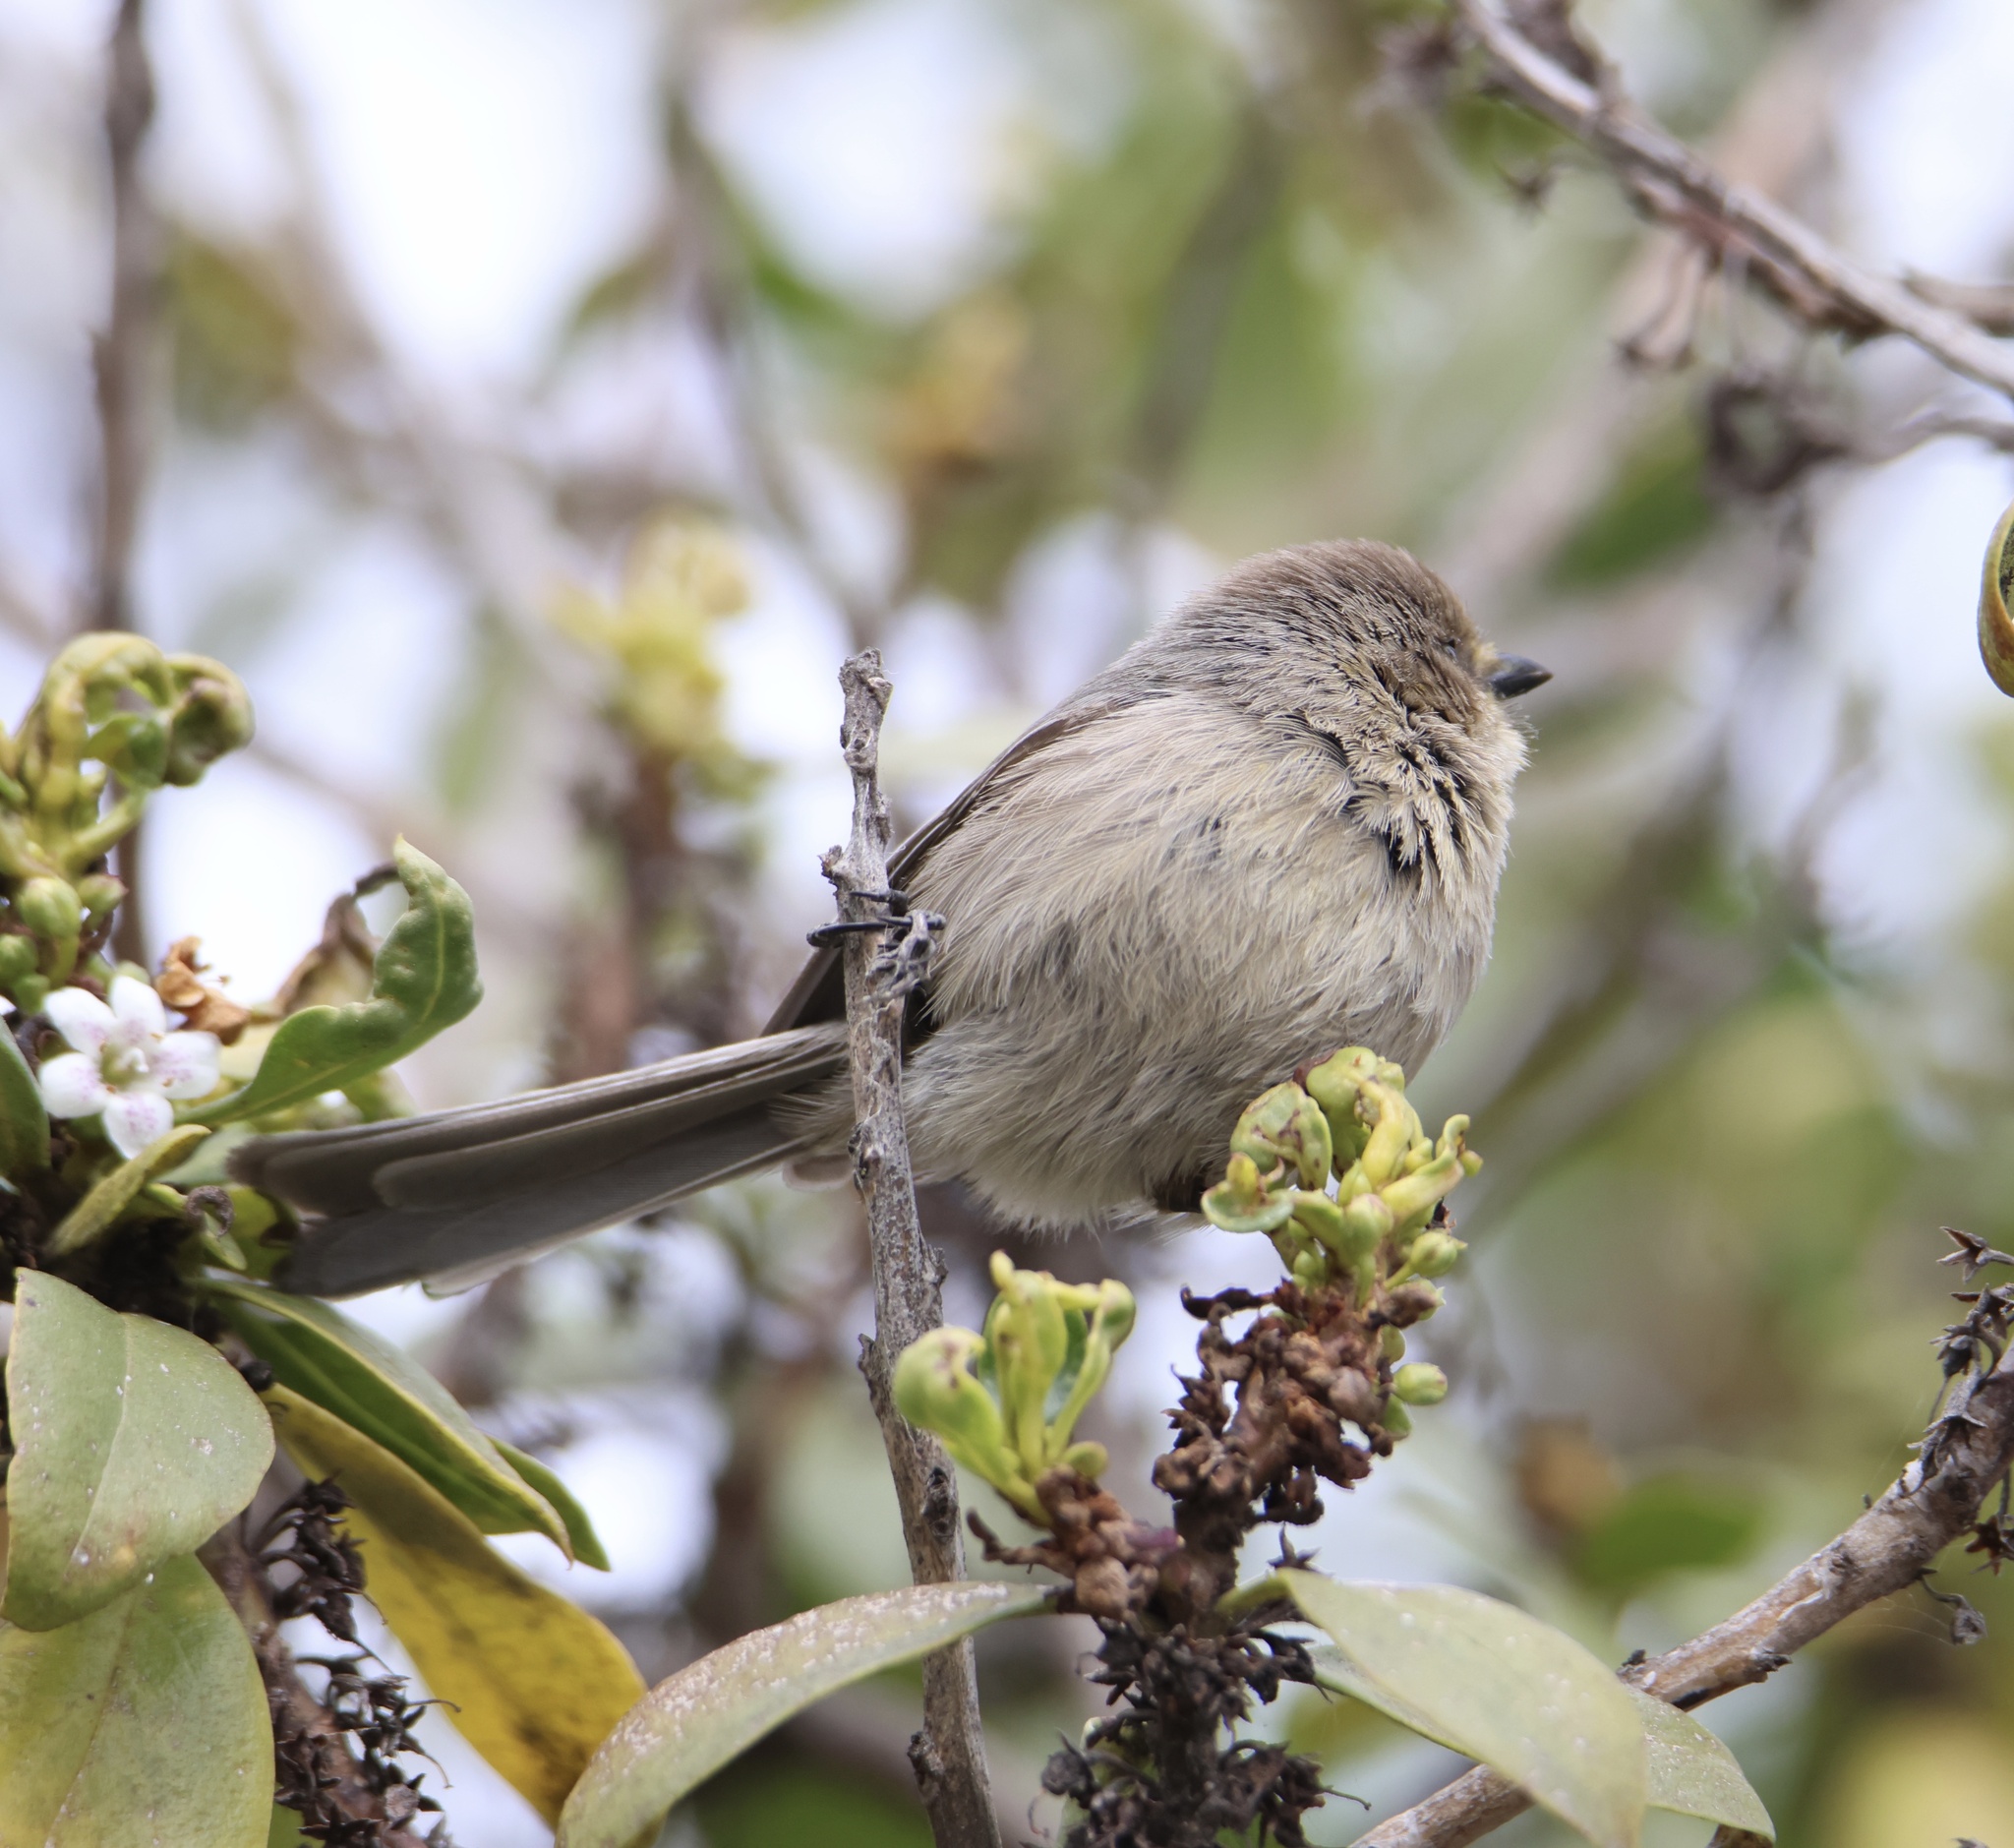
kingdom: Animalia
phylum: Chordata
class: Aves
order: Passeriformes
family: Aegithalidae
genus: Psaltriparus
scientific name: Psaltriparus minimus
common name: American bushtit
